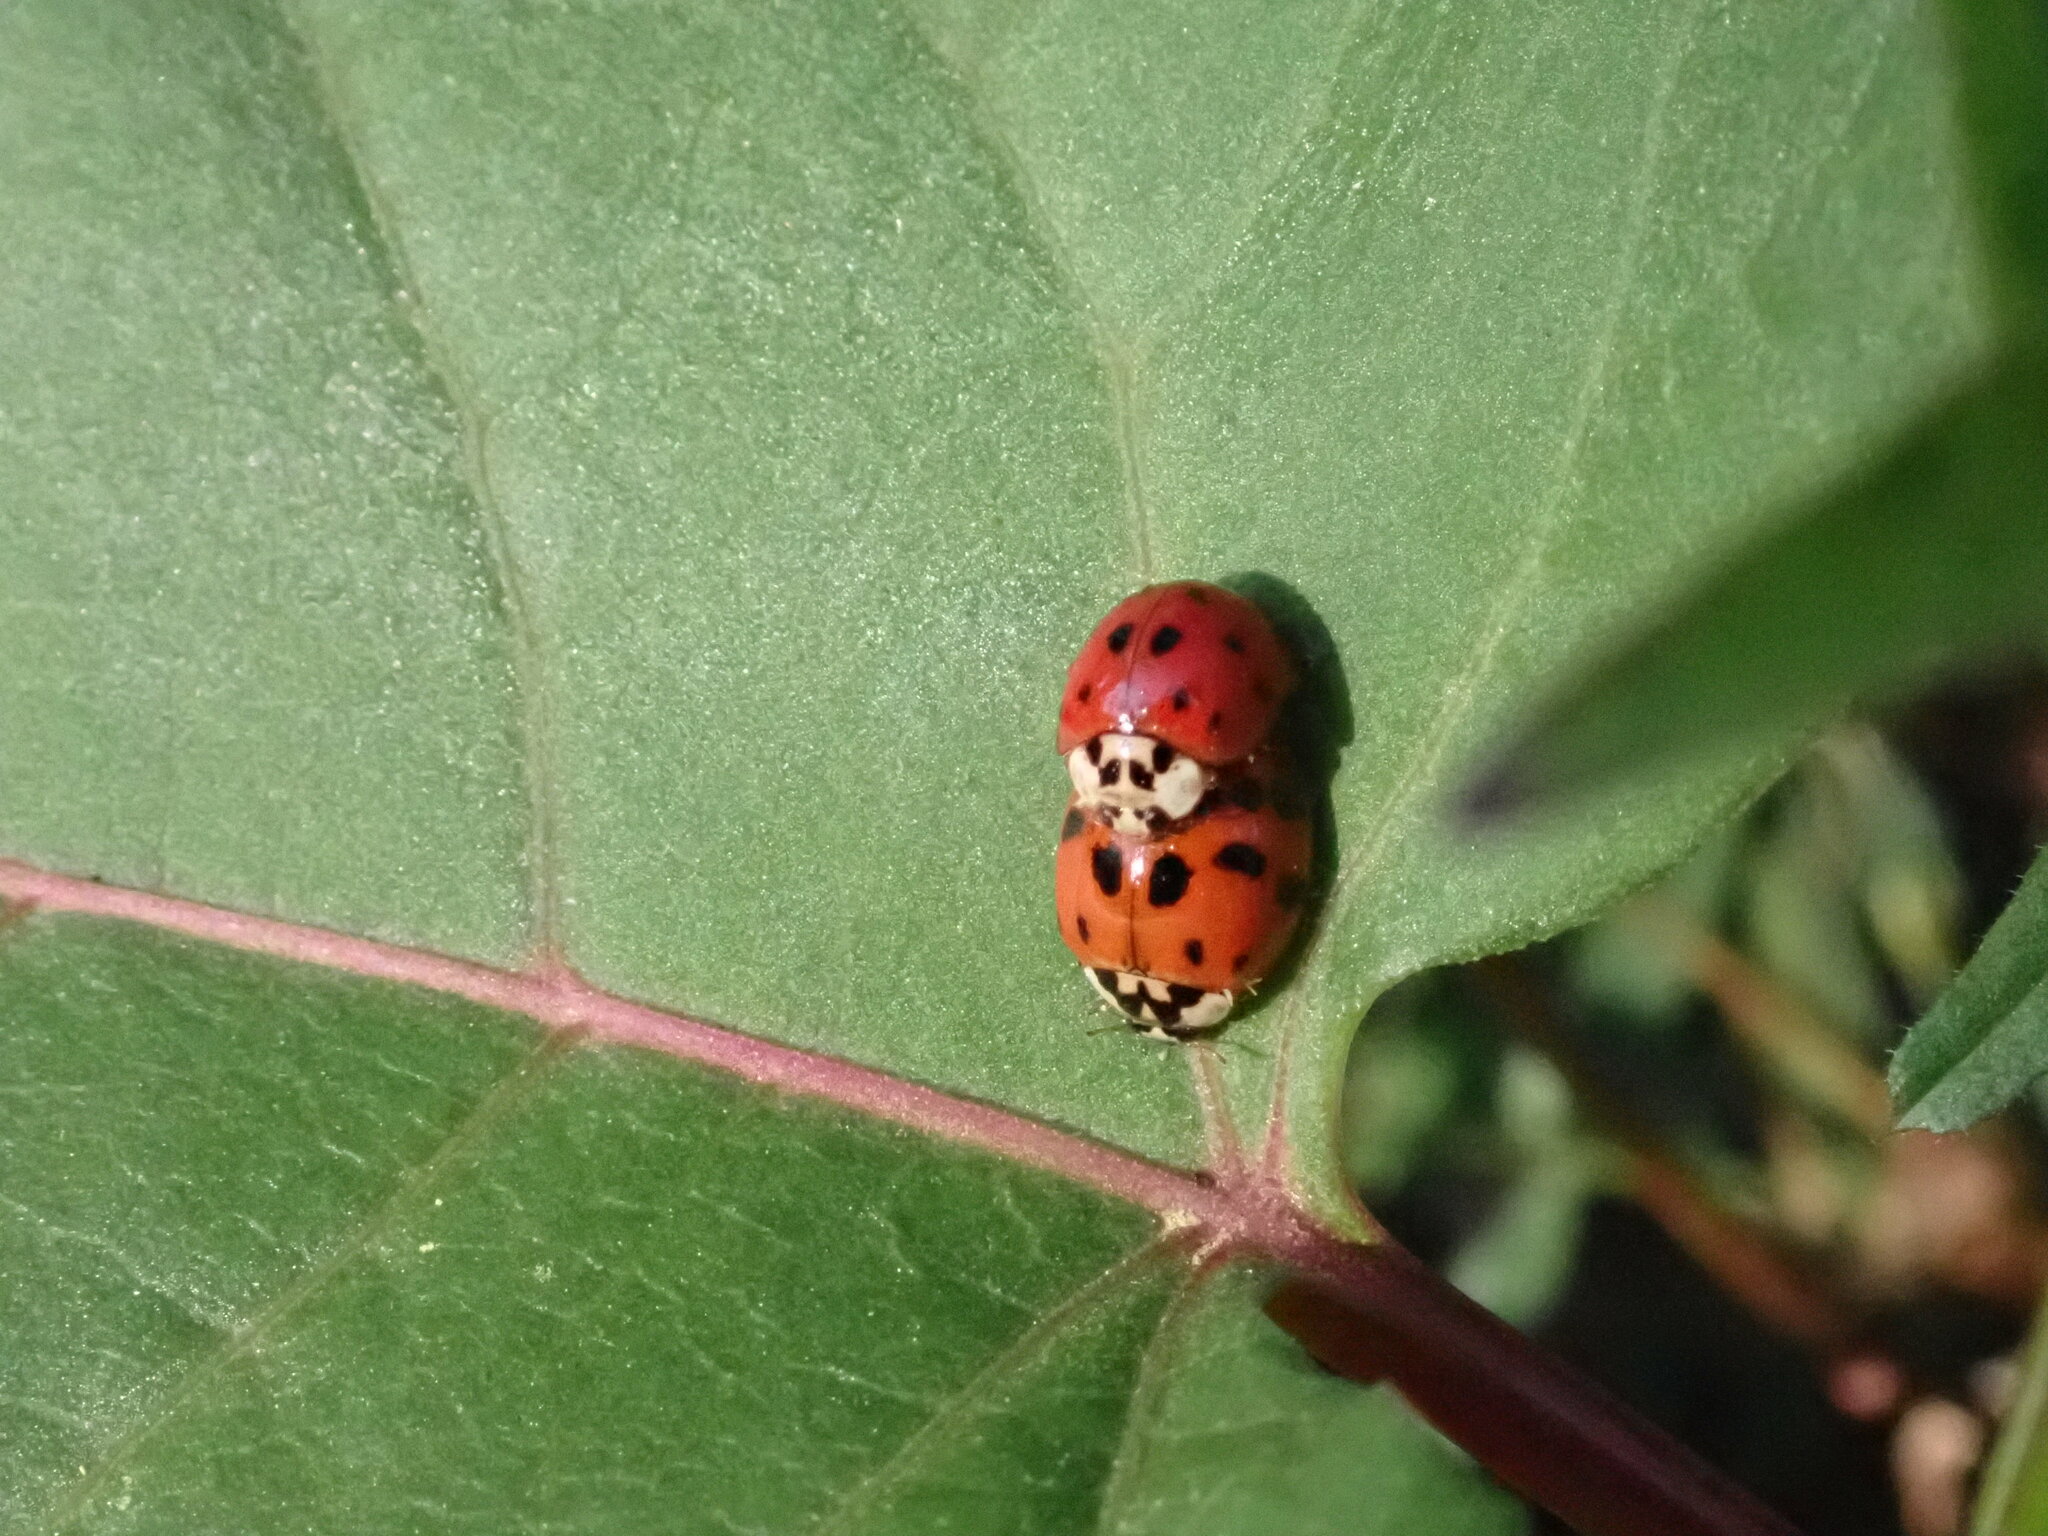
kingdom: Animalia
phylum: Arthropoda
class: Insecta
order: Coleoptera
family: Coccinellidae
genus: Harmonia
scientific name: Harmonia axyridis
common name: Harlequin ladybird
